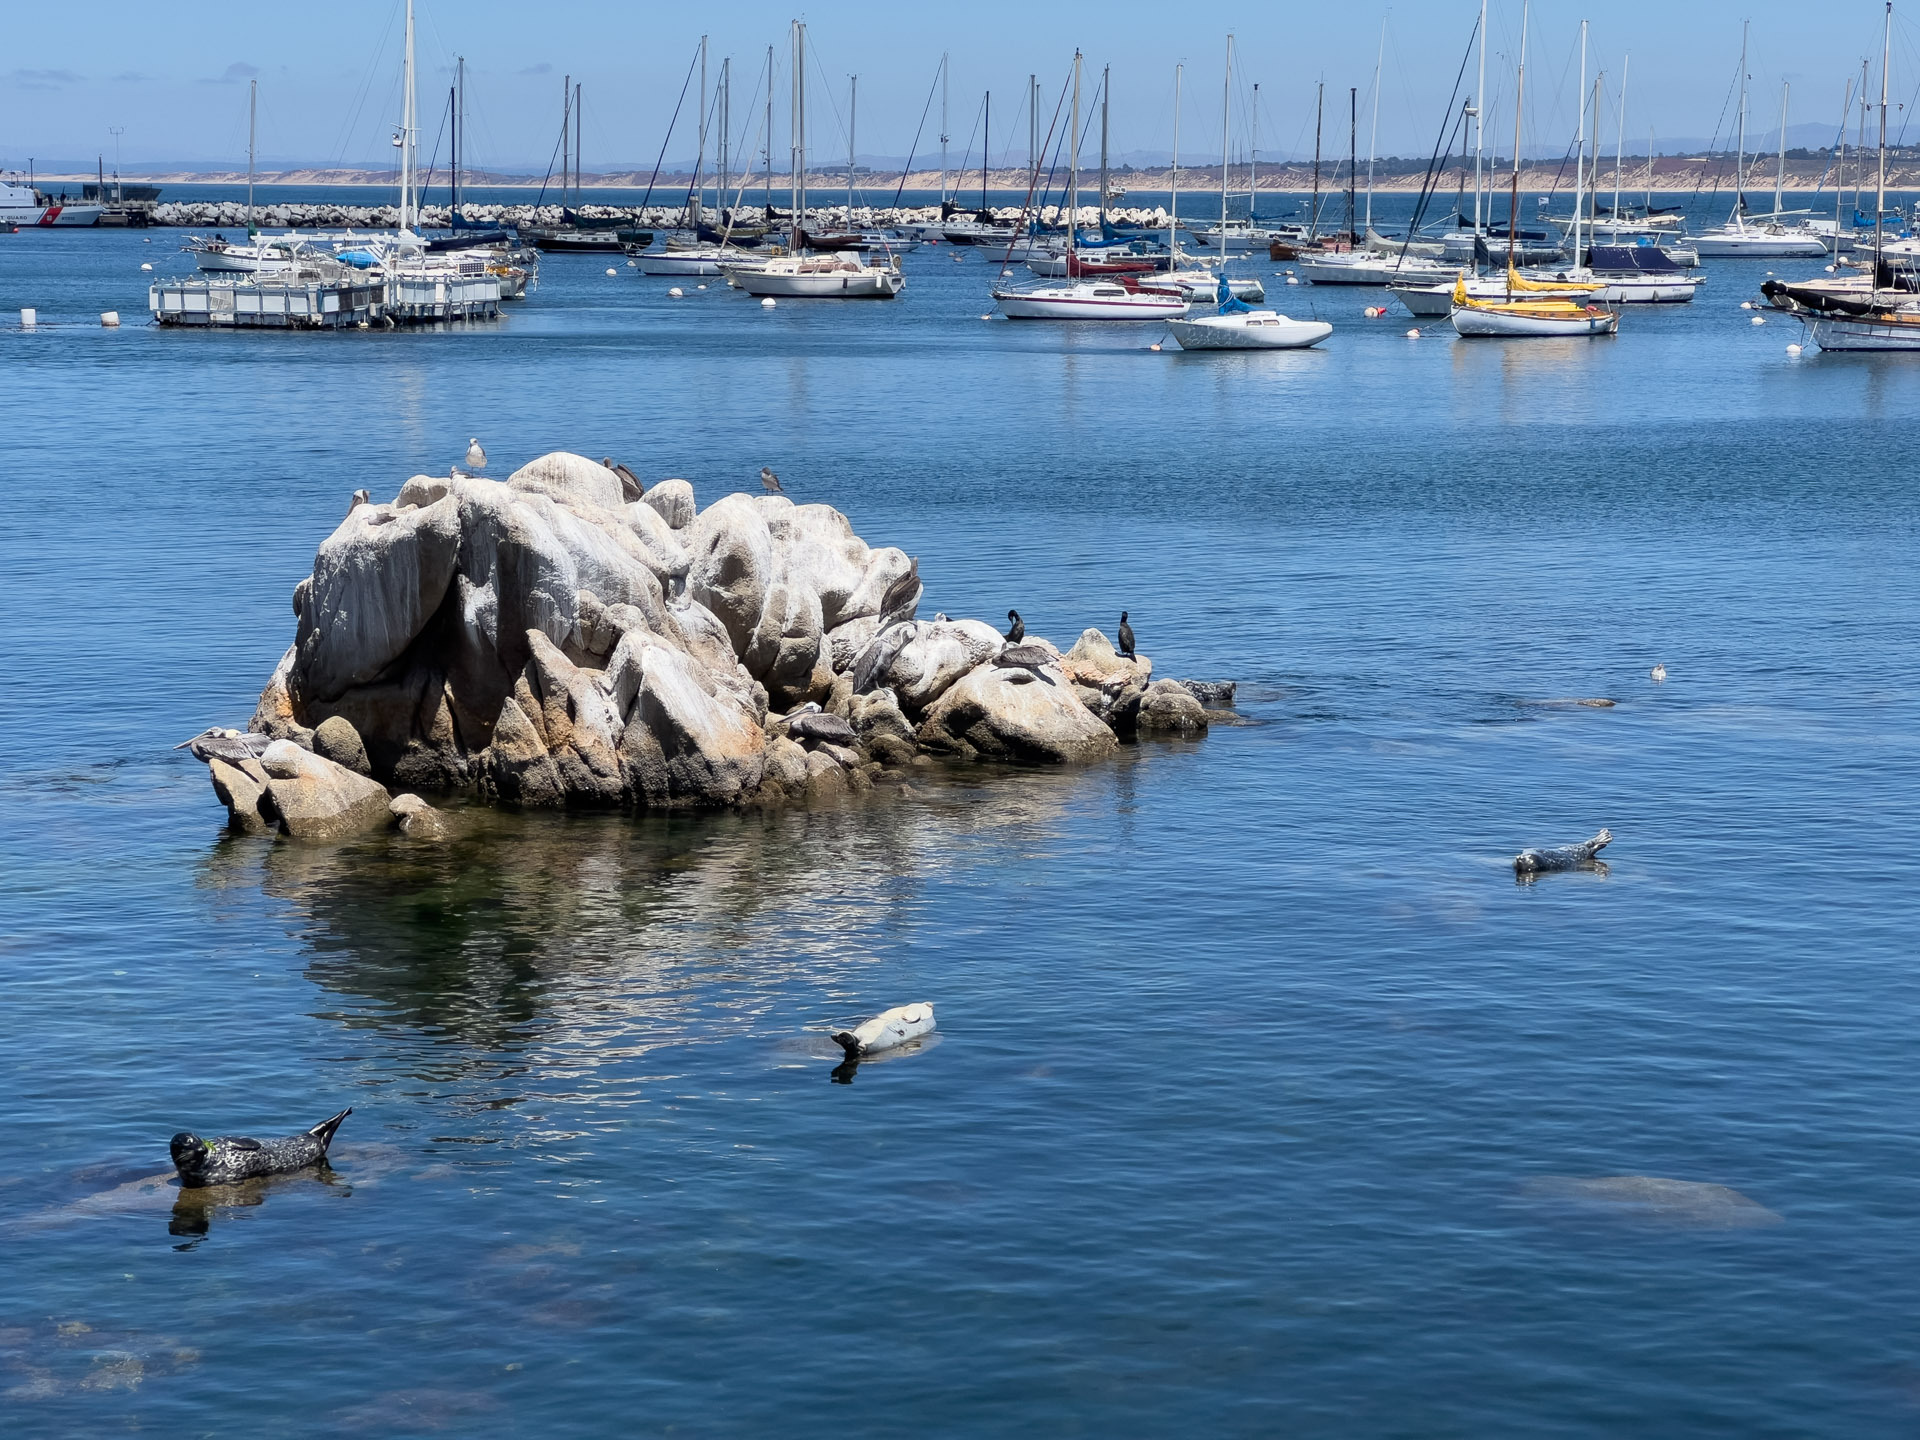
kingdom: Animalia
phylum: Chordata
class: Mammalia
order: Carnivora
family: Phocidae
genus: Phoca
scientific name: Phoca vitulina
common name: Harbor seal
